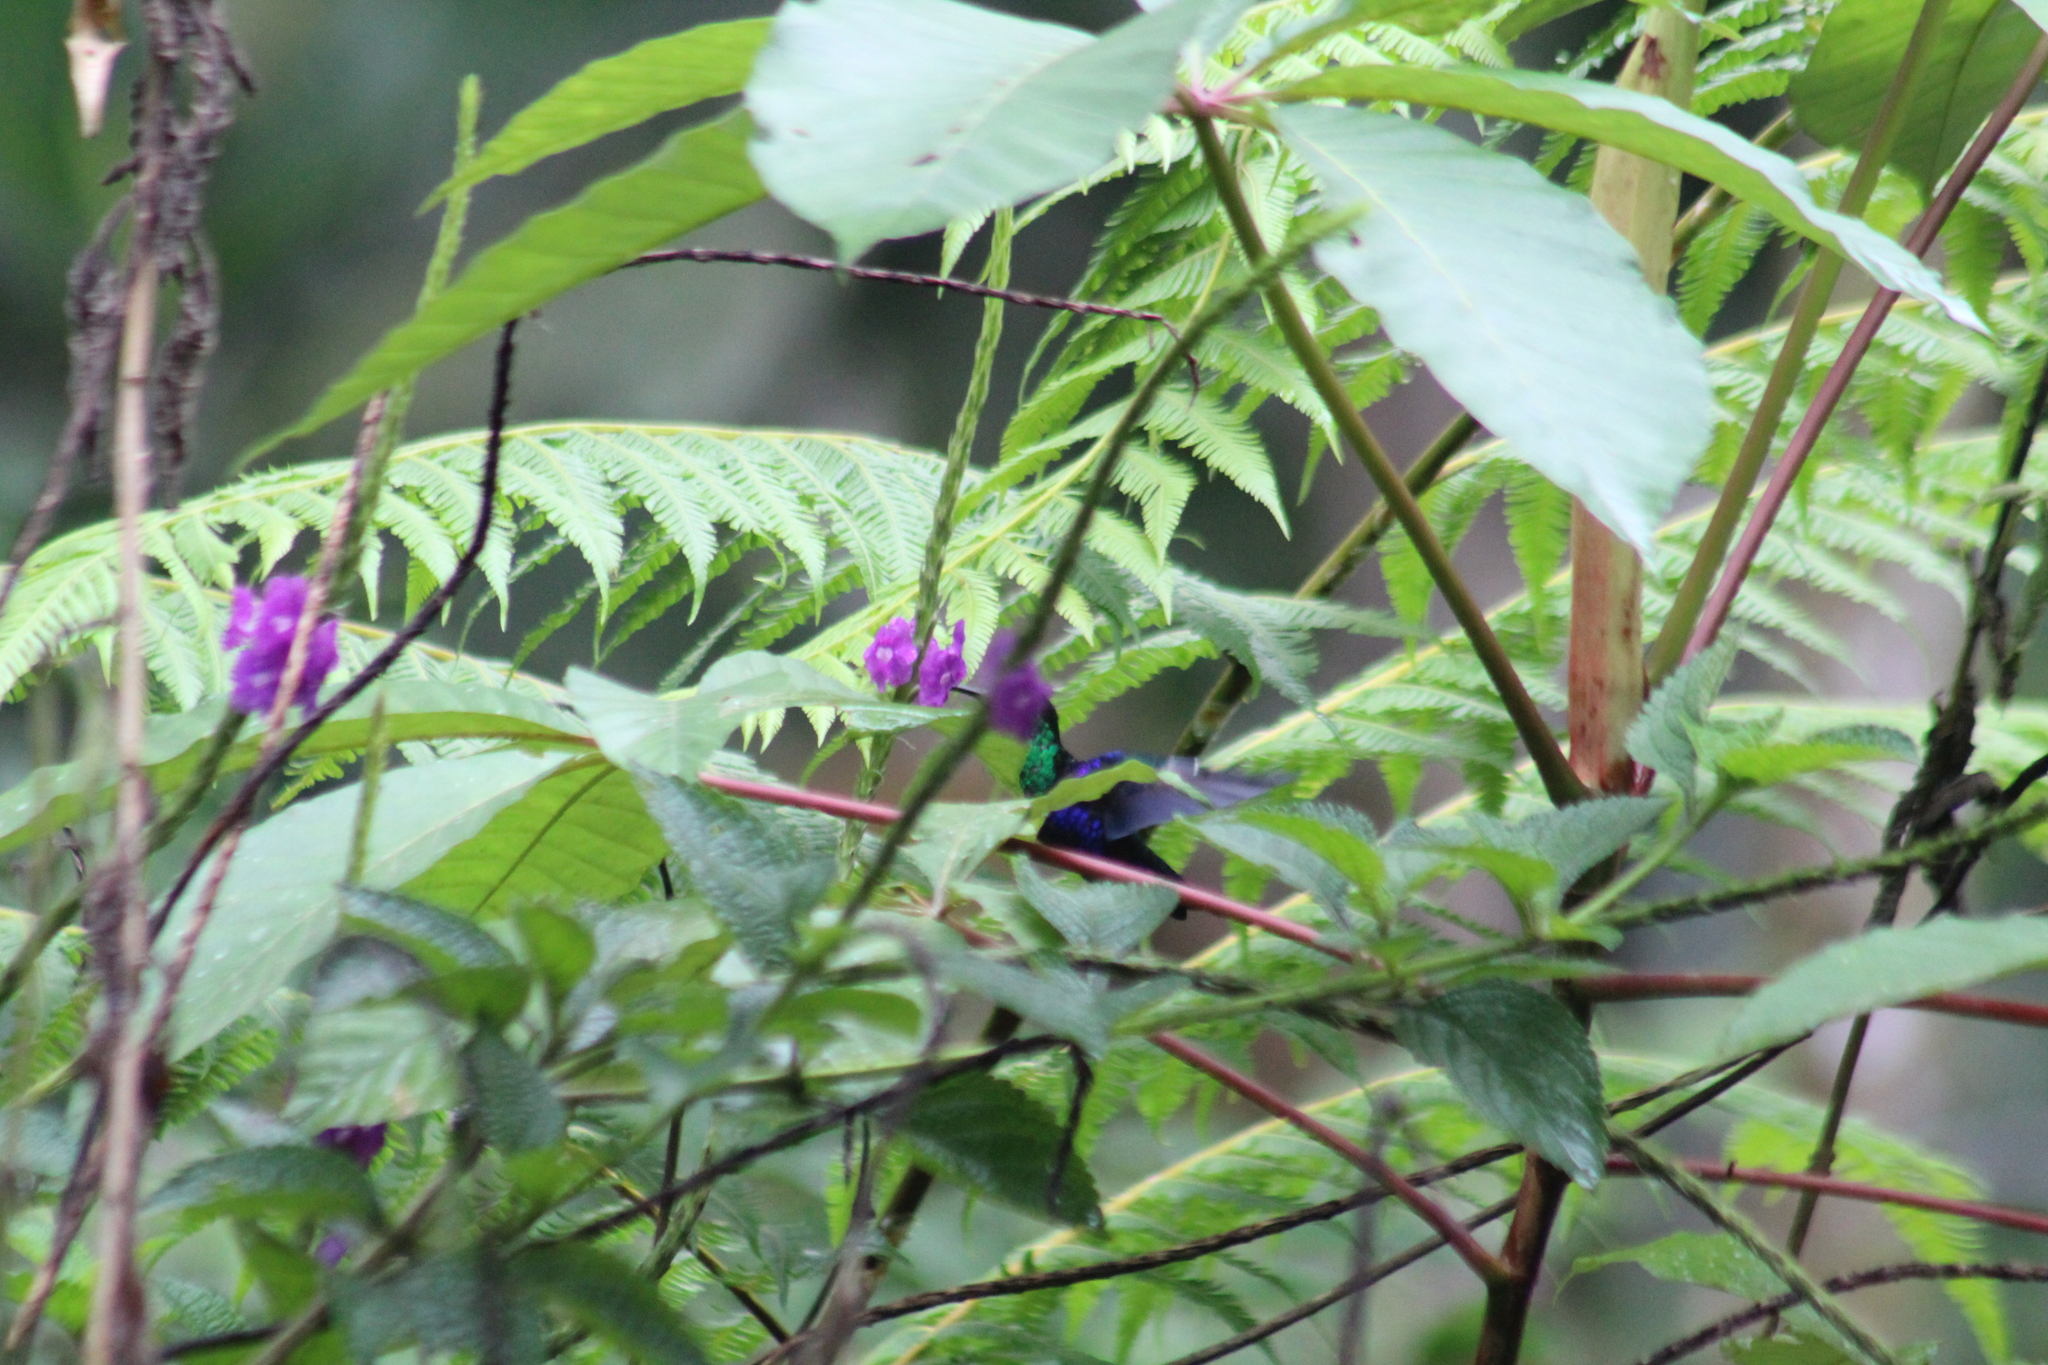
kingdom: Animalia
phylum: Chordata
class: Aves
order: Apodiformes
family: Trochilidae
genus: Thalurania
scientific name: Thalurania furcata
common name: Fork-tailed woodnymph
